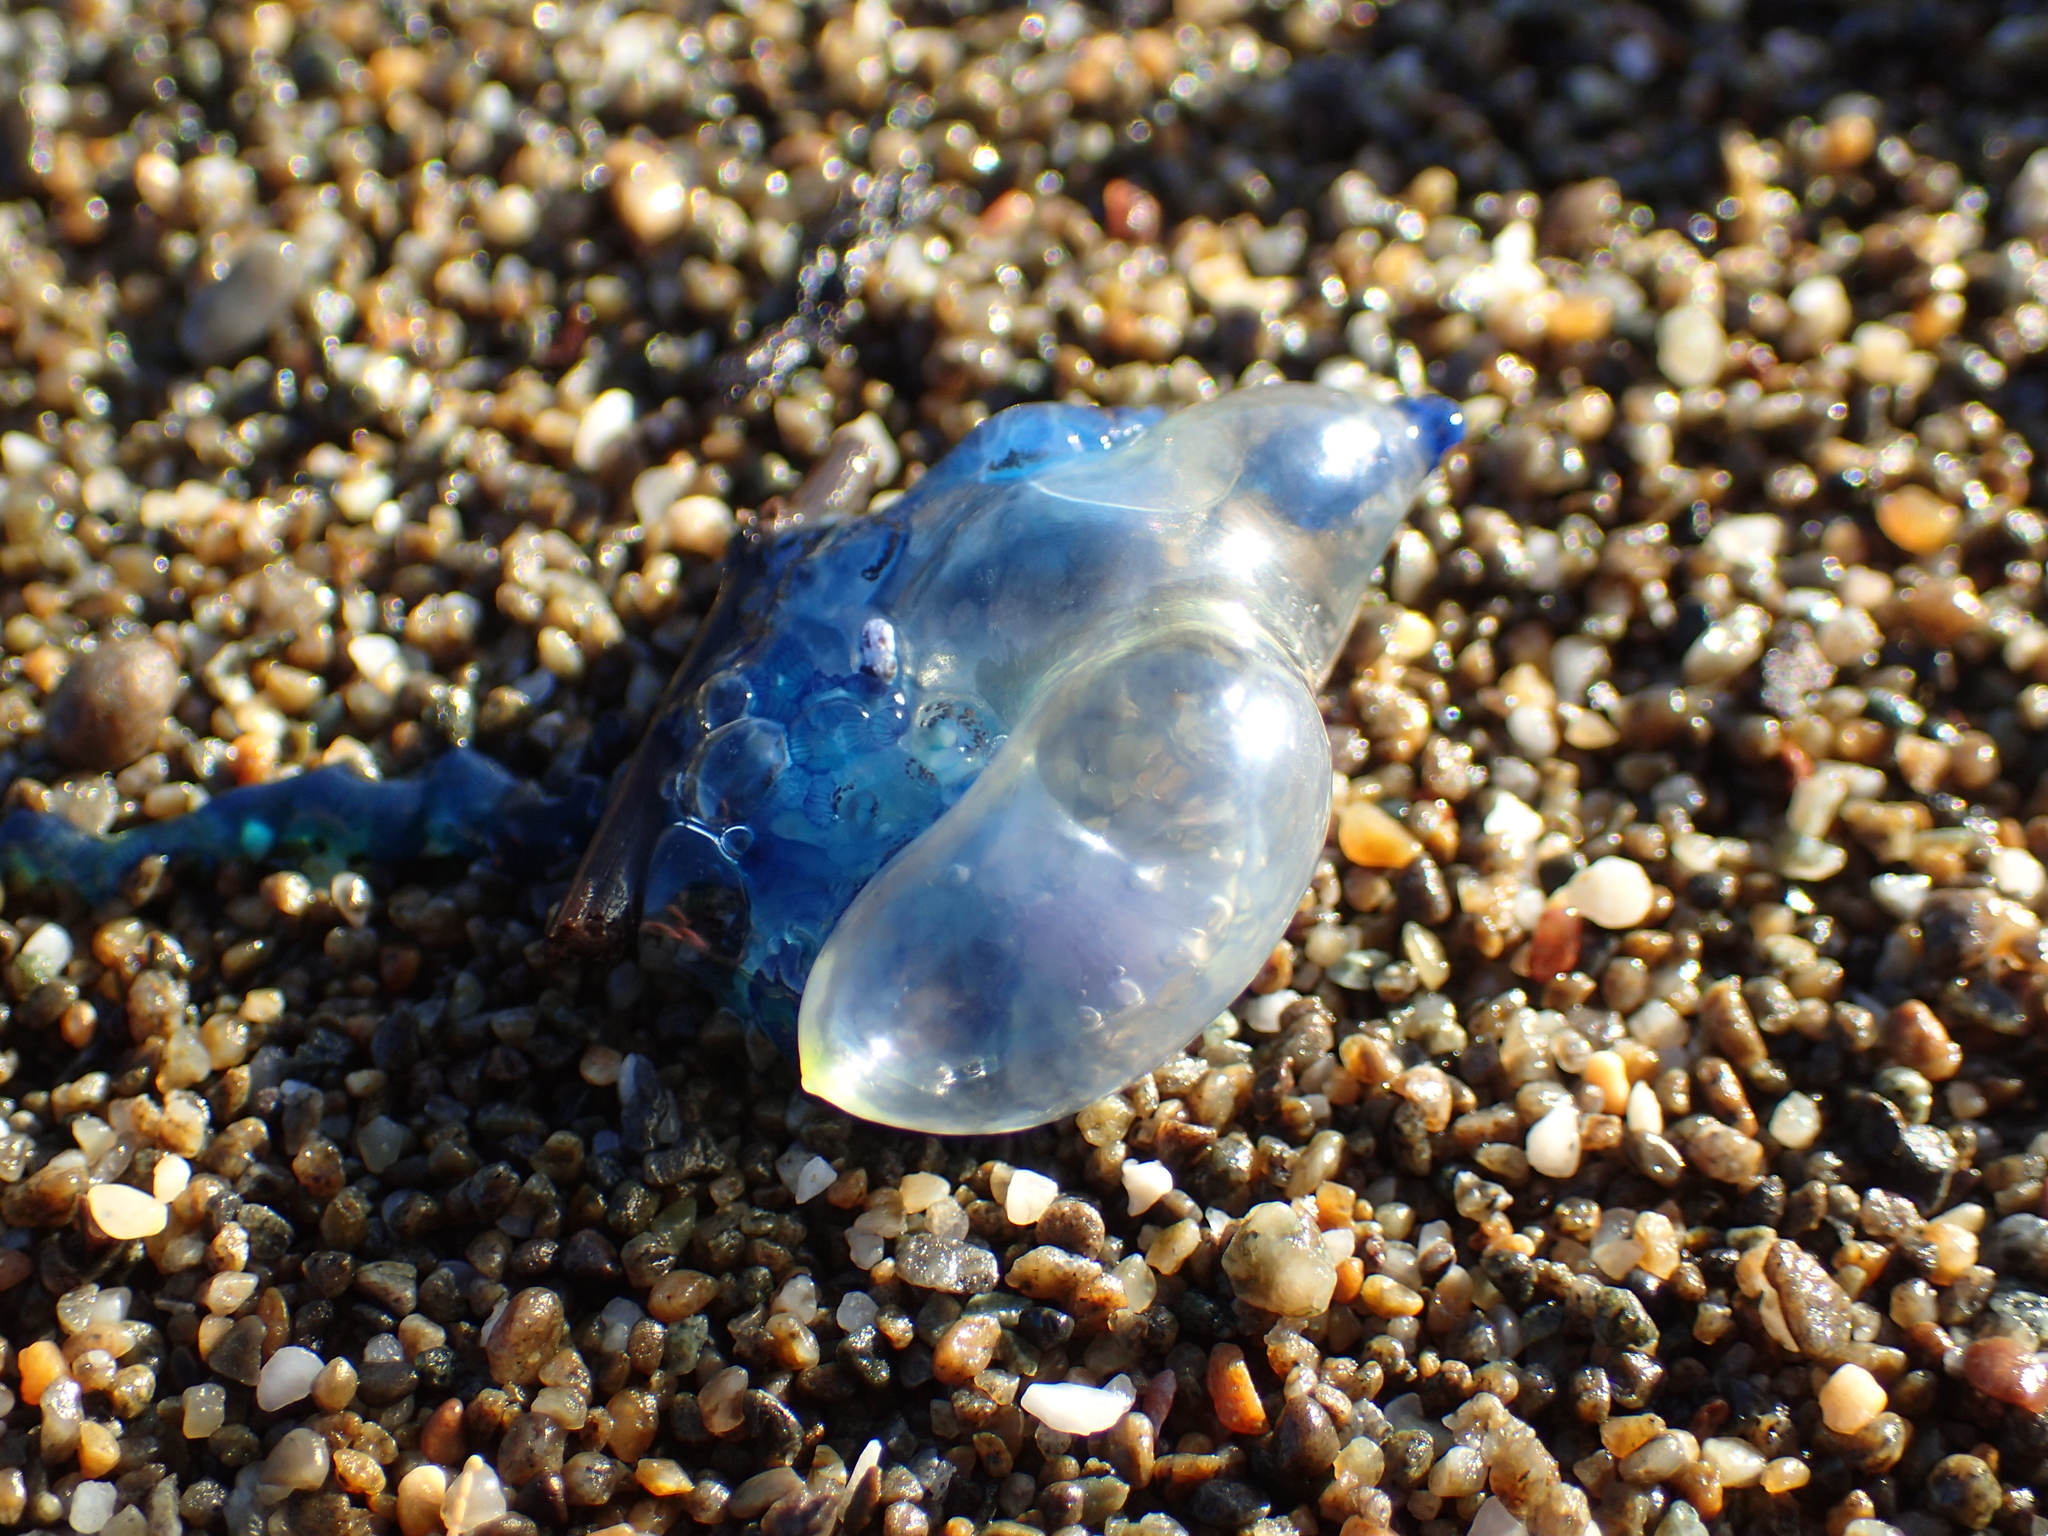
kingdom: Animalia
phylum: Cnidaria
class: Hydrozoa
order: Siphonophorae
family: Physaliidae
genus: Physalia
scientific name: Physalia
